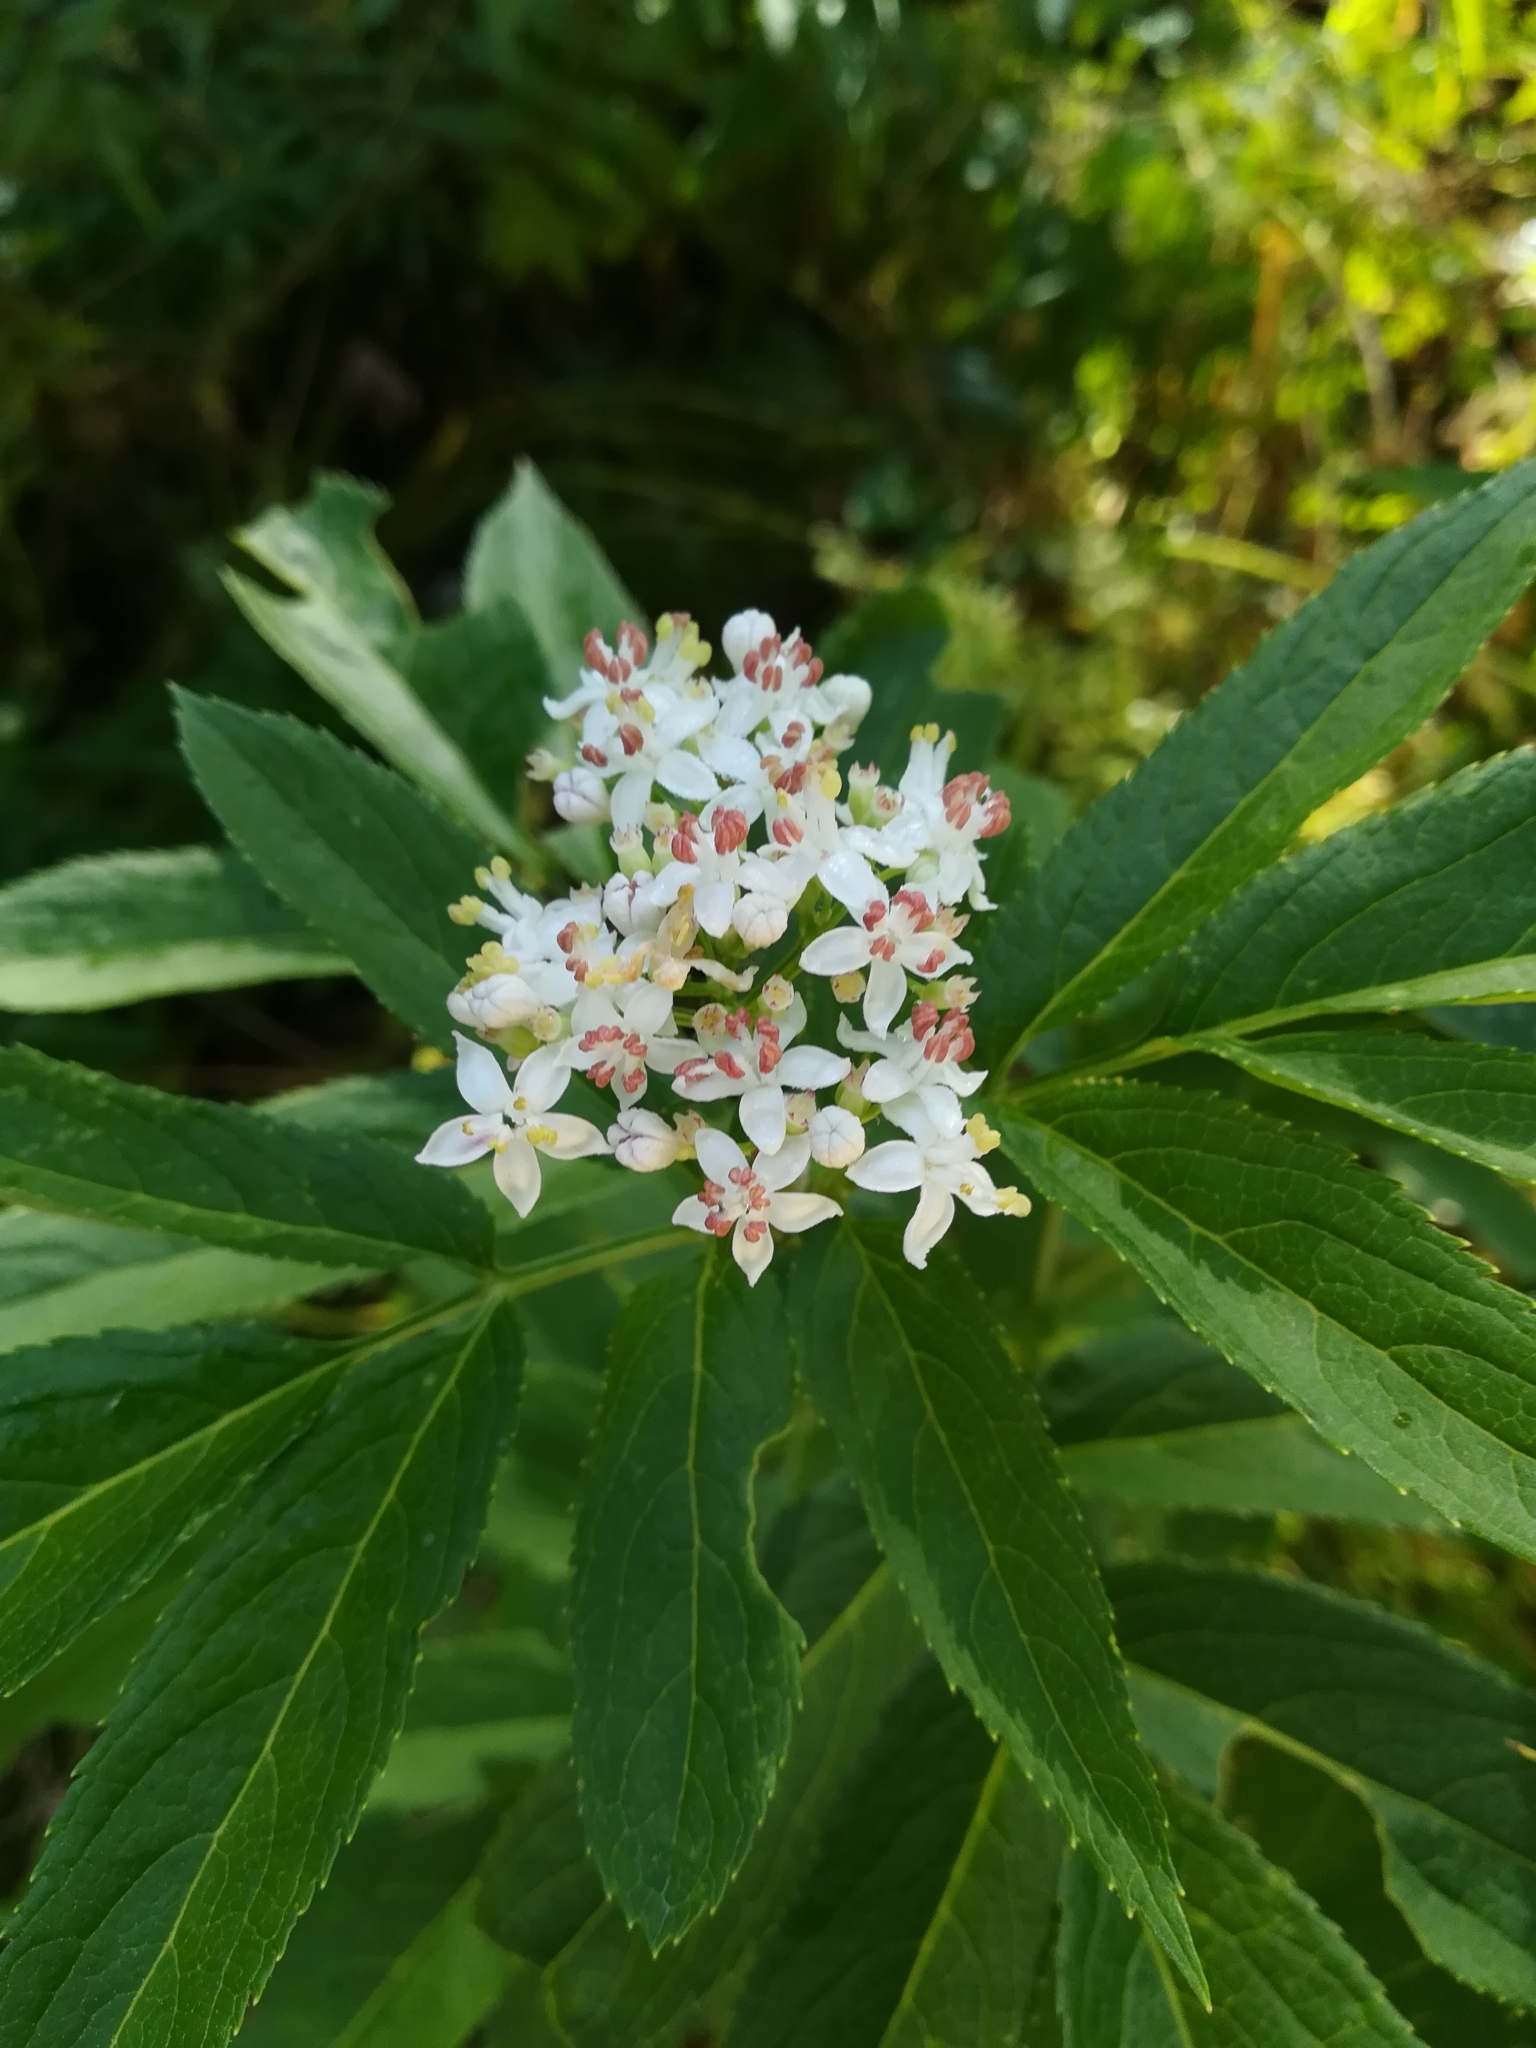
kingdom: Plantae
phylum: Tracheophyta
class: Magnoliopsida
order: Dipsacales
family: Viburnaceae
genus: Sambucus
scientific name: Sambucus ebulus
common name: Dwarf elder
